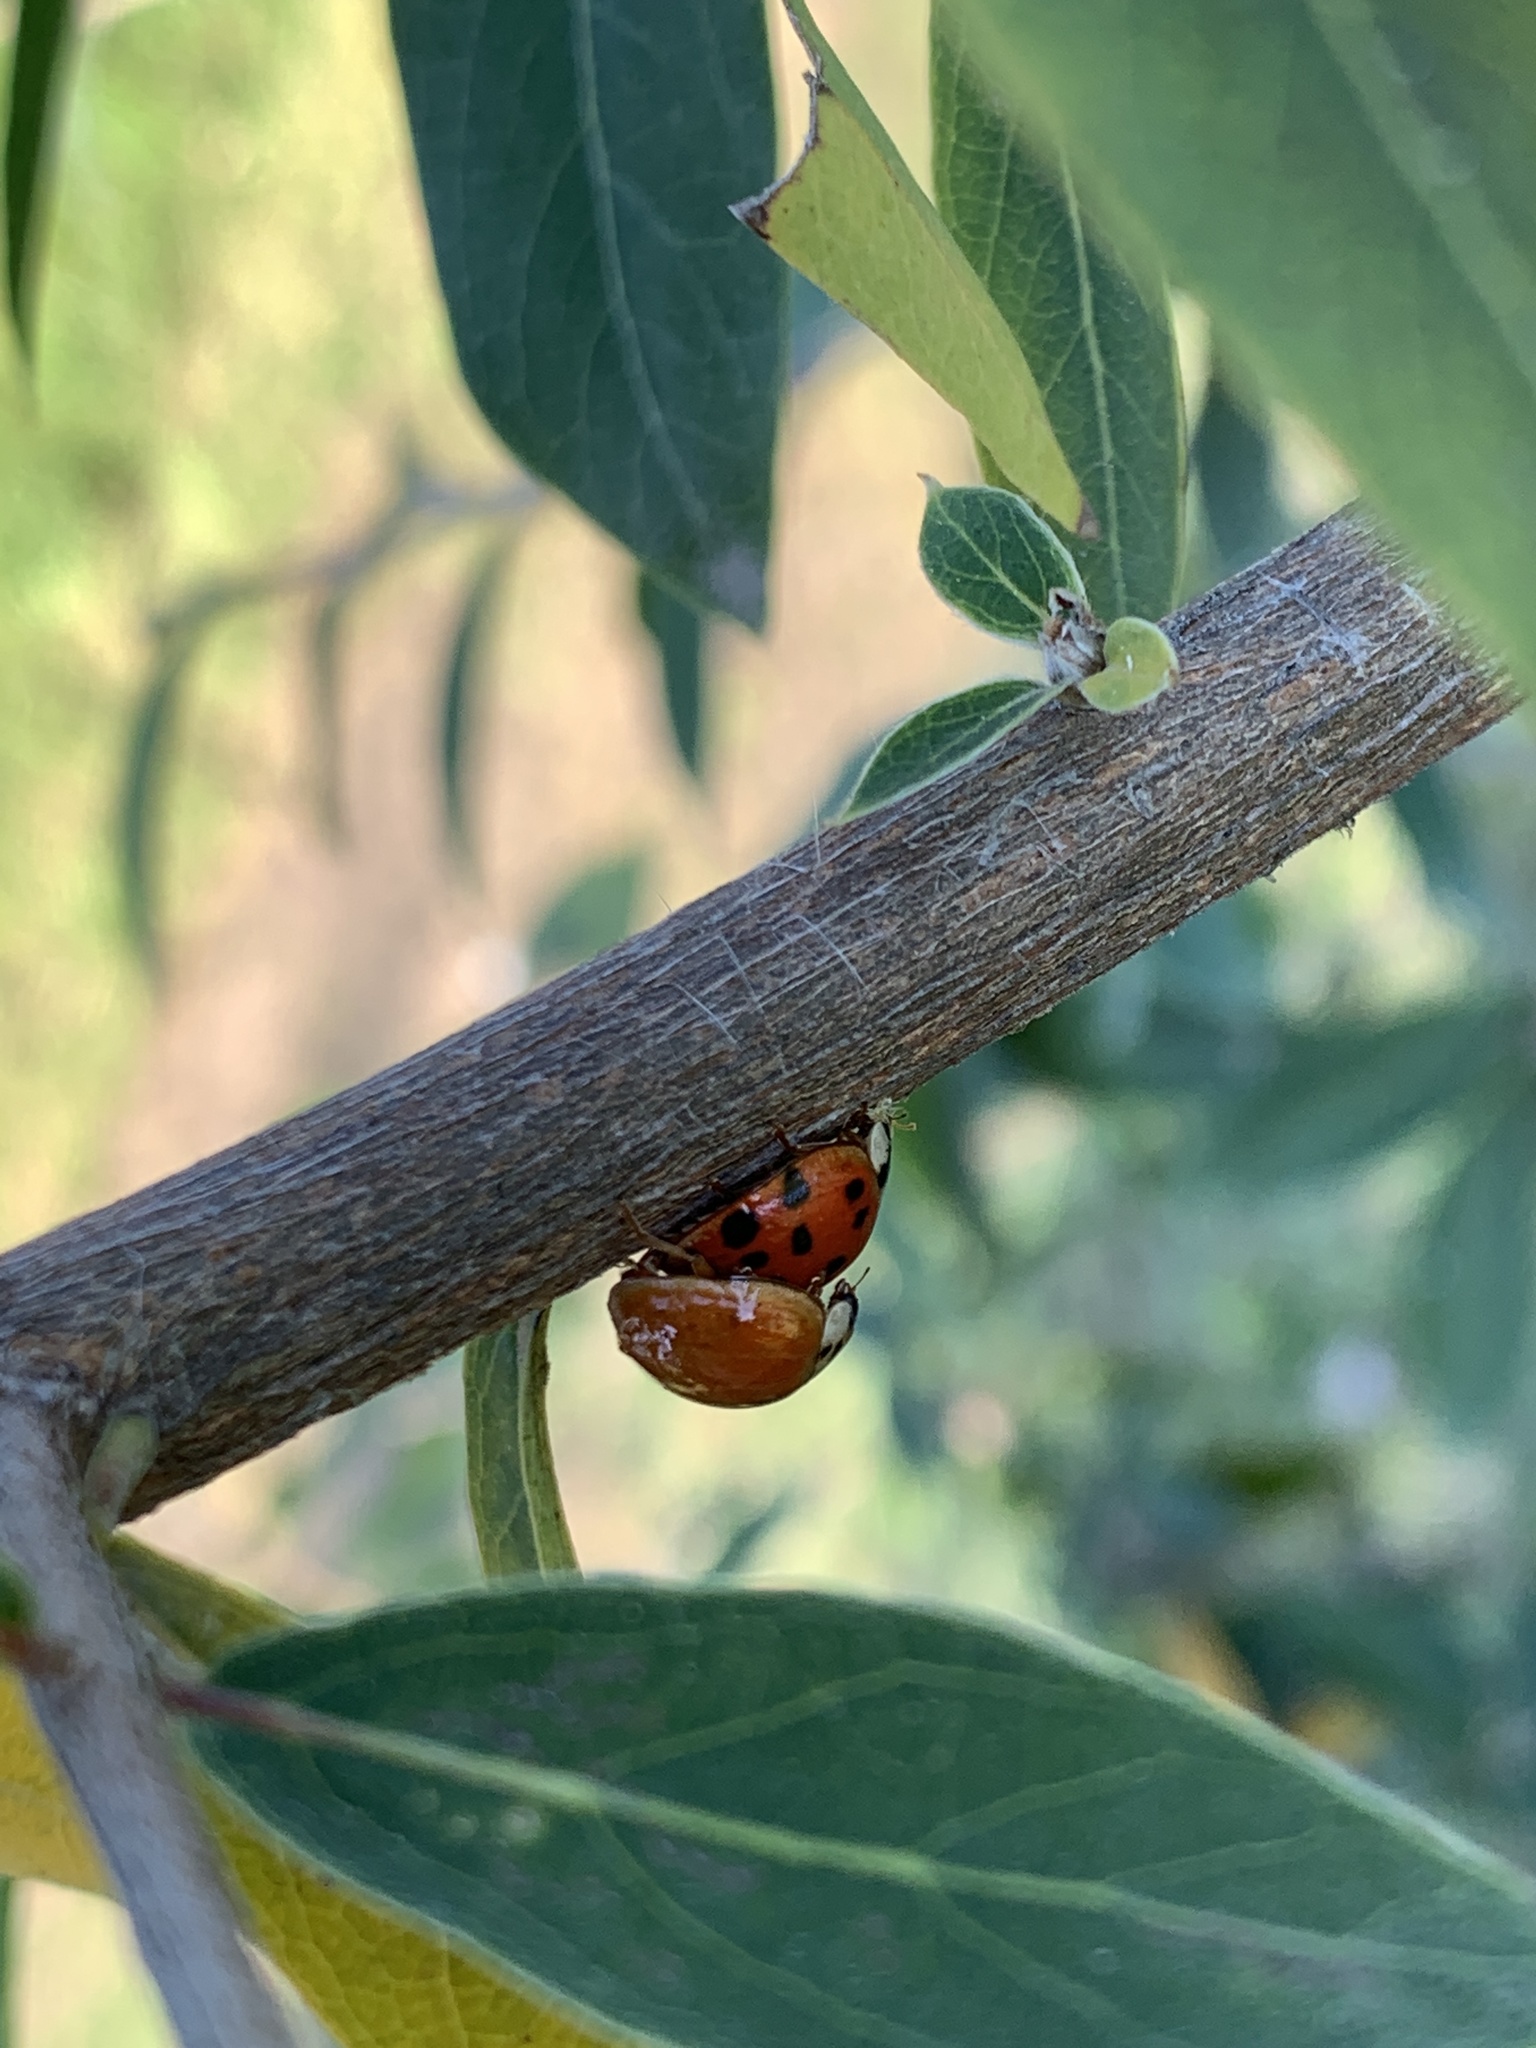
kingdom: Animalia
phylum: Arthropoda
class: Insecta
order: Coleoptera
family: Coccinellidae
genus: Harmonia
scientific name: Harmonia axyridis
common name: Harlequin ladybird
